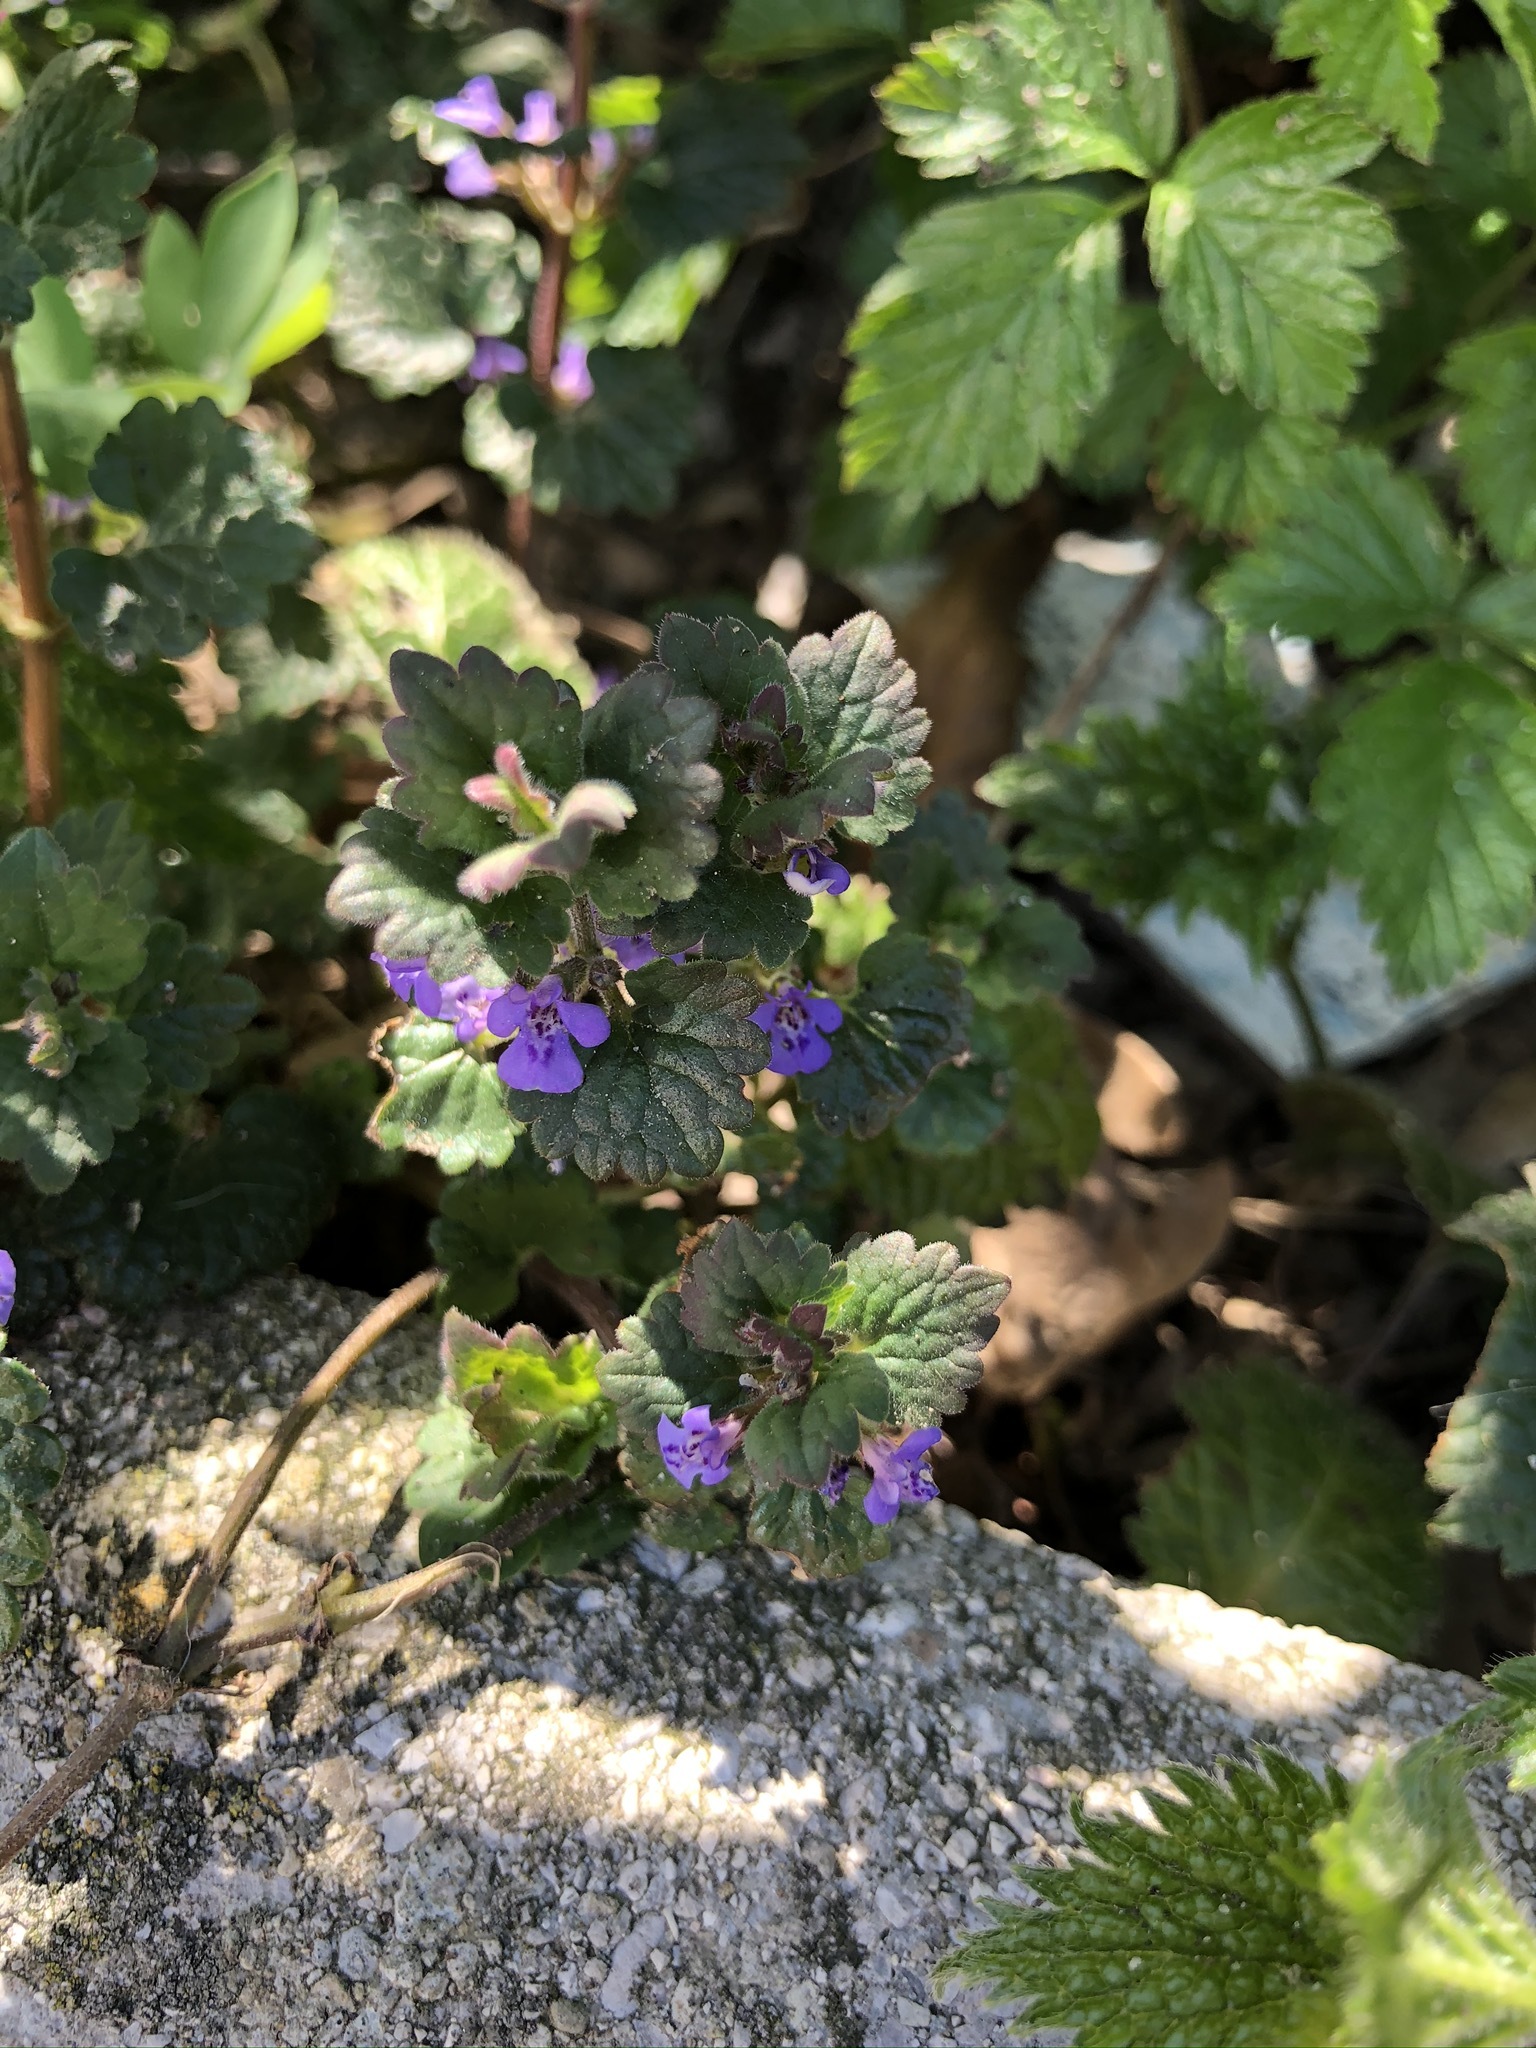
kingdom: Plantae
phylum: Tracheophyta
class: Magnoliopsida
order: Lamiales
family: Lamiaceae
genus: Glechoma
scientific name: Glechoma hederacea
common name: Ground ivy
